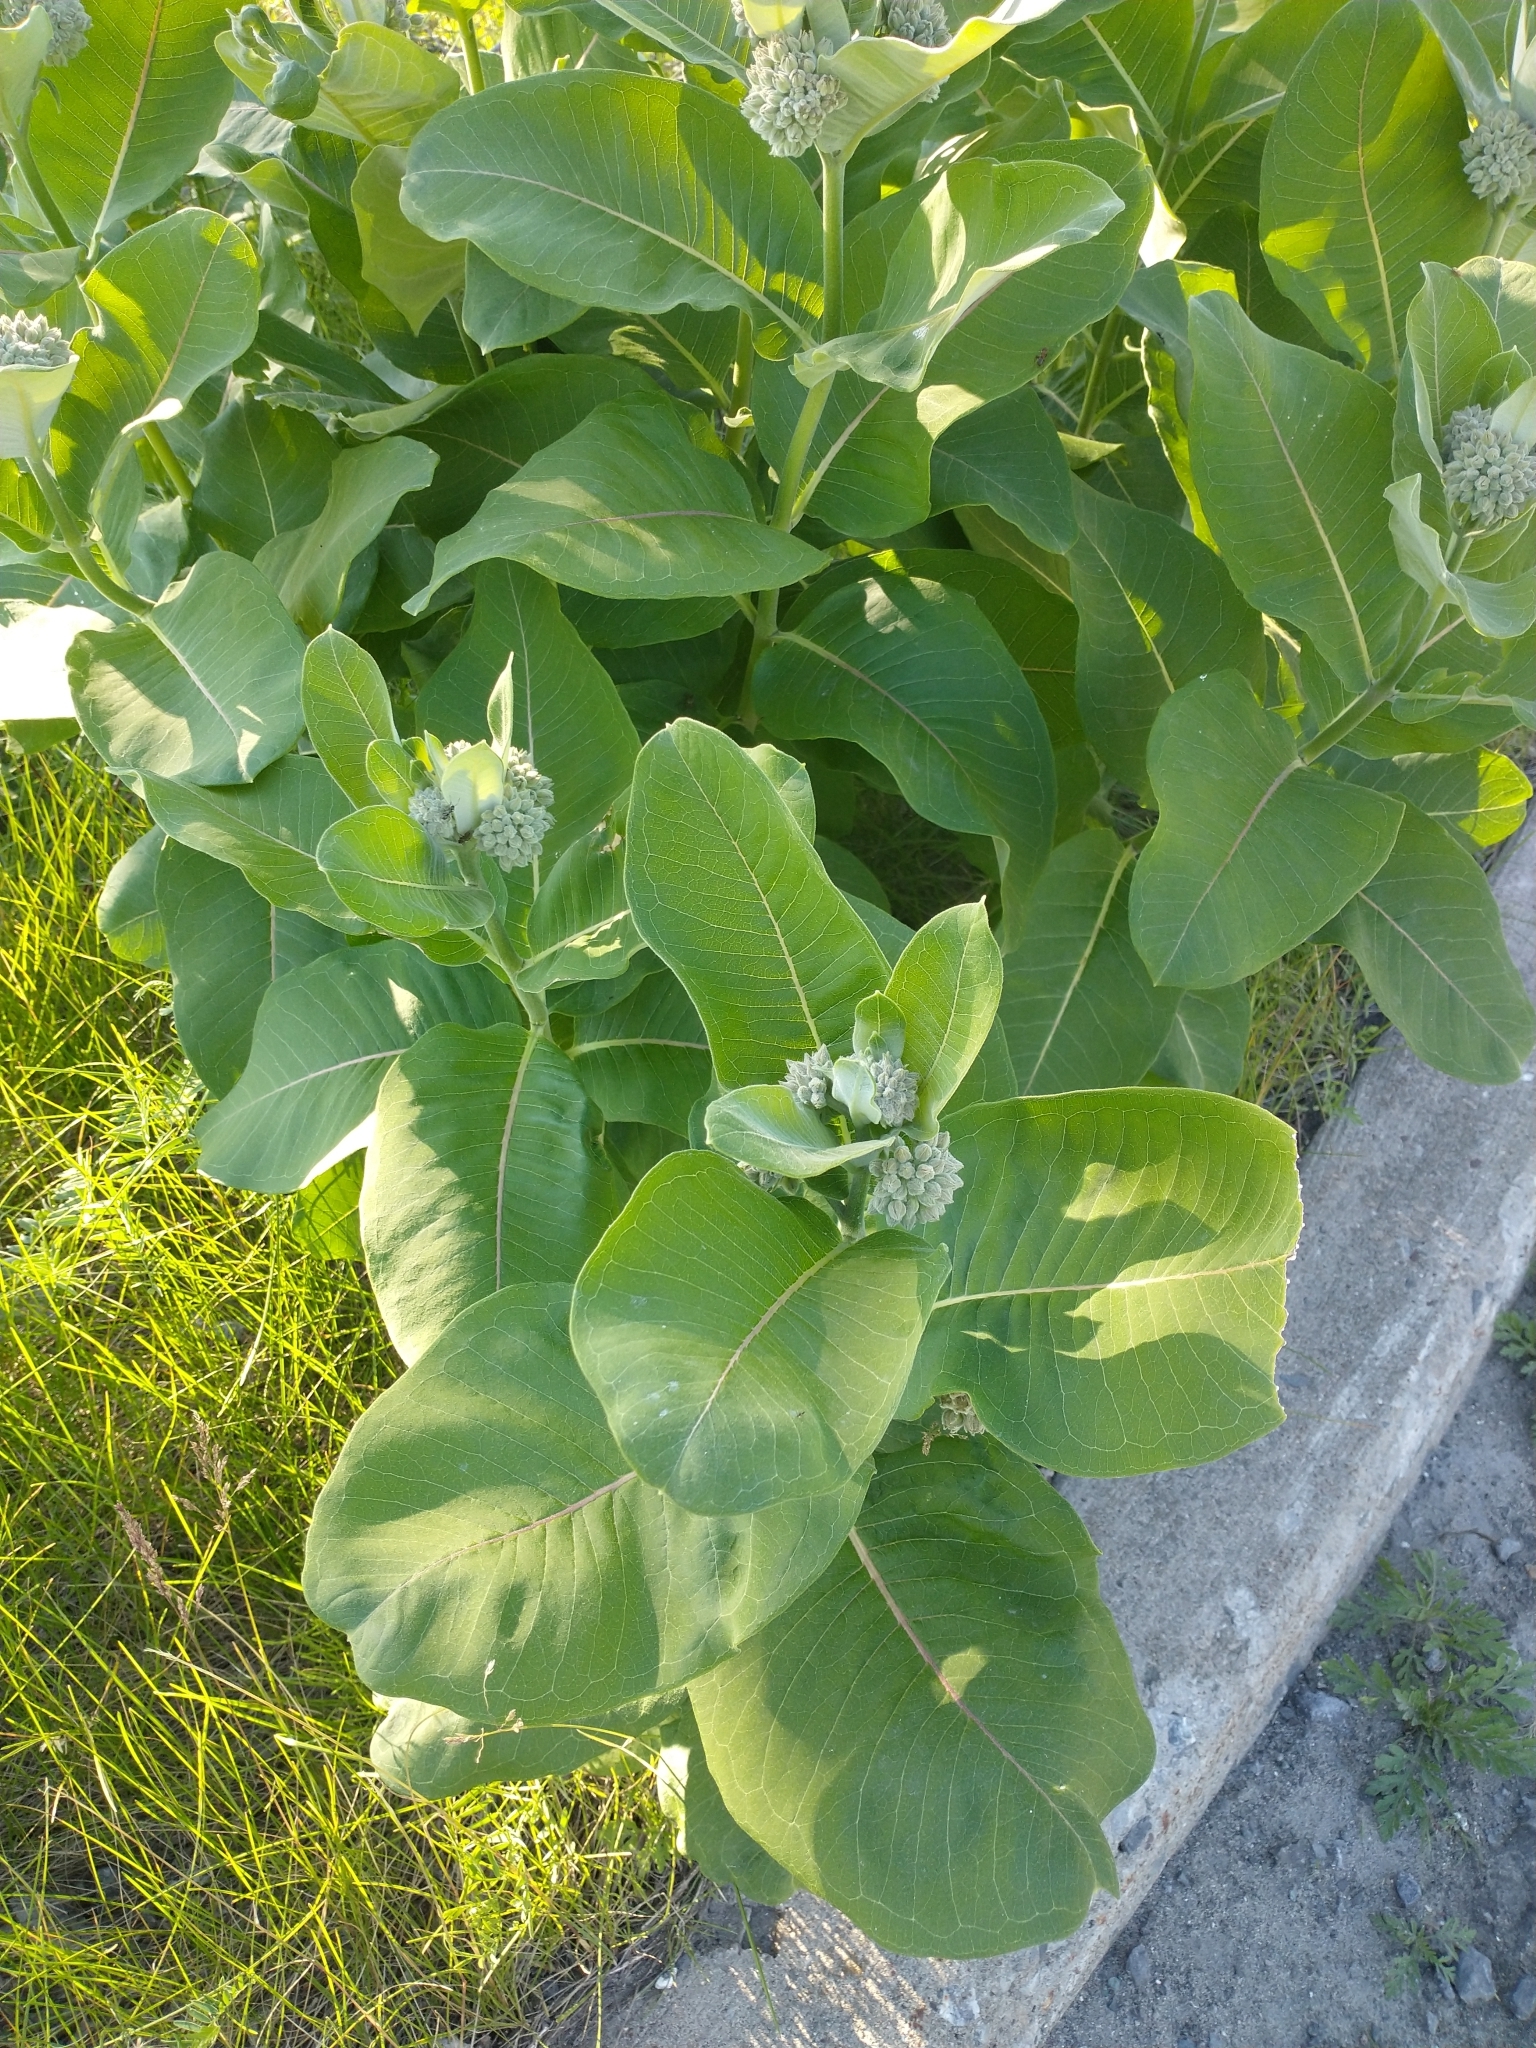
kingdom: Plantae
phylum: Tracheophyta
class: Magnoliopsida
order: Gentianales
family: Apocynaceae
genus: Asclepias
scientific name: Asclepias syriaca
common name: Common milkweed
